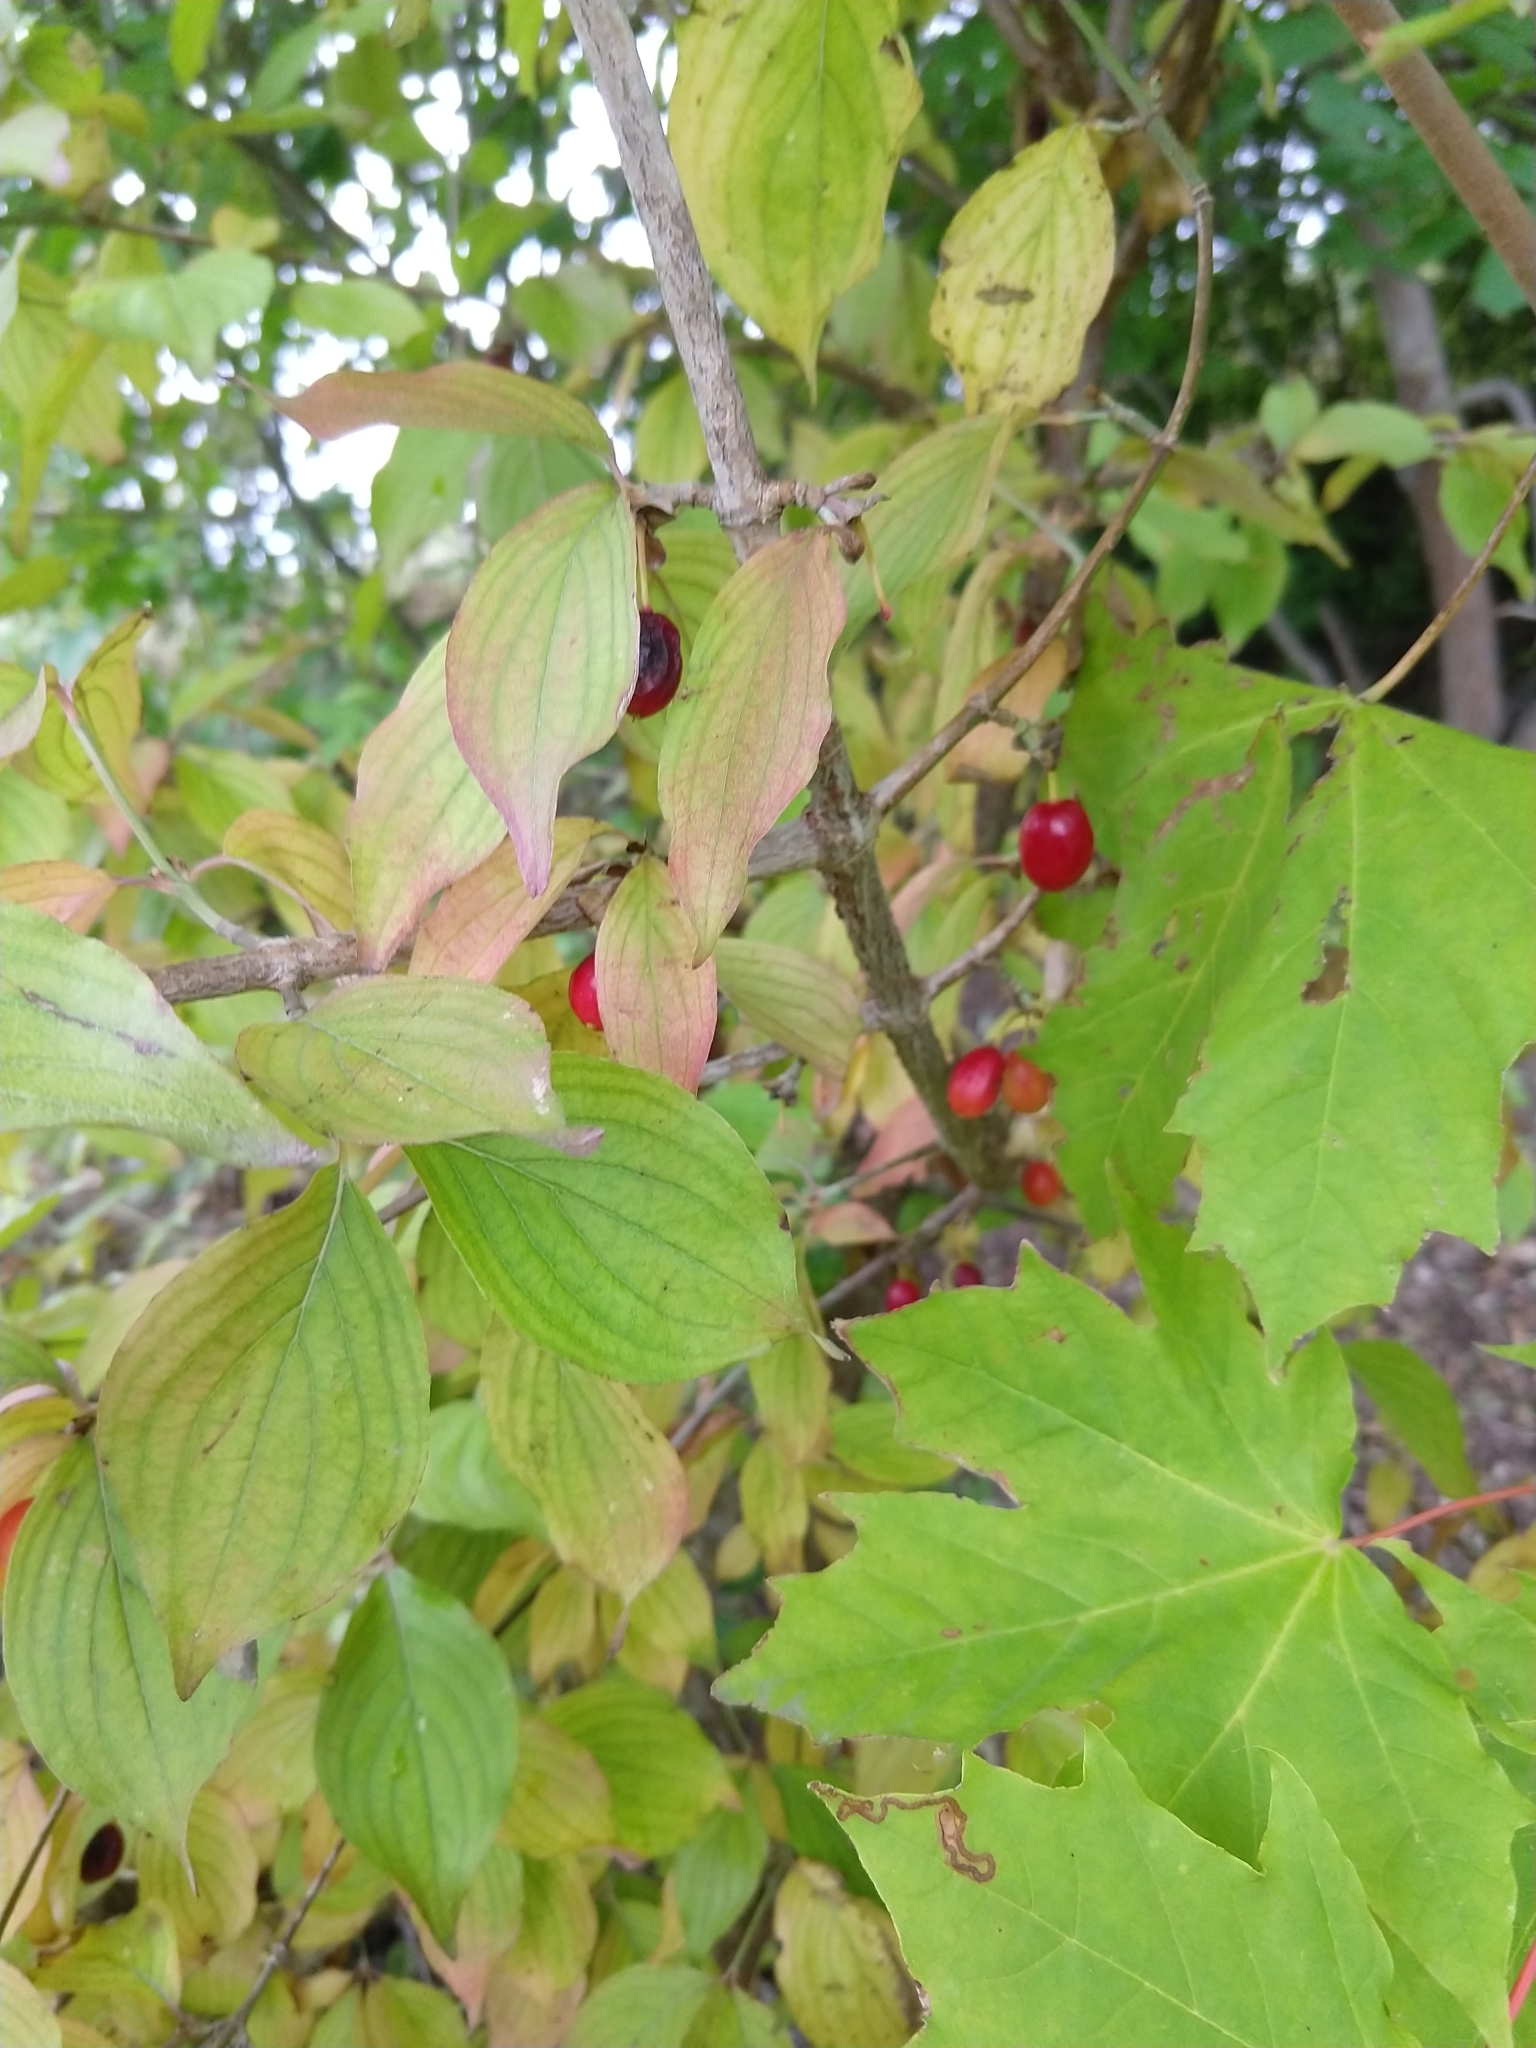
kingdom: Plantae
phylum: Tracheophyta
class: Magnoliopsida
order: Cornales
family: Cornaceae
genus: Cornus
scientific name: Cornus mas
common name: Cornelian-cherry
